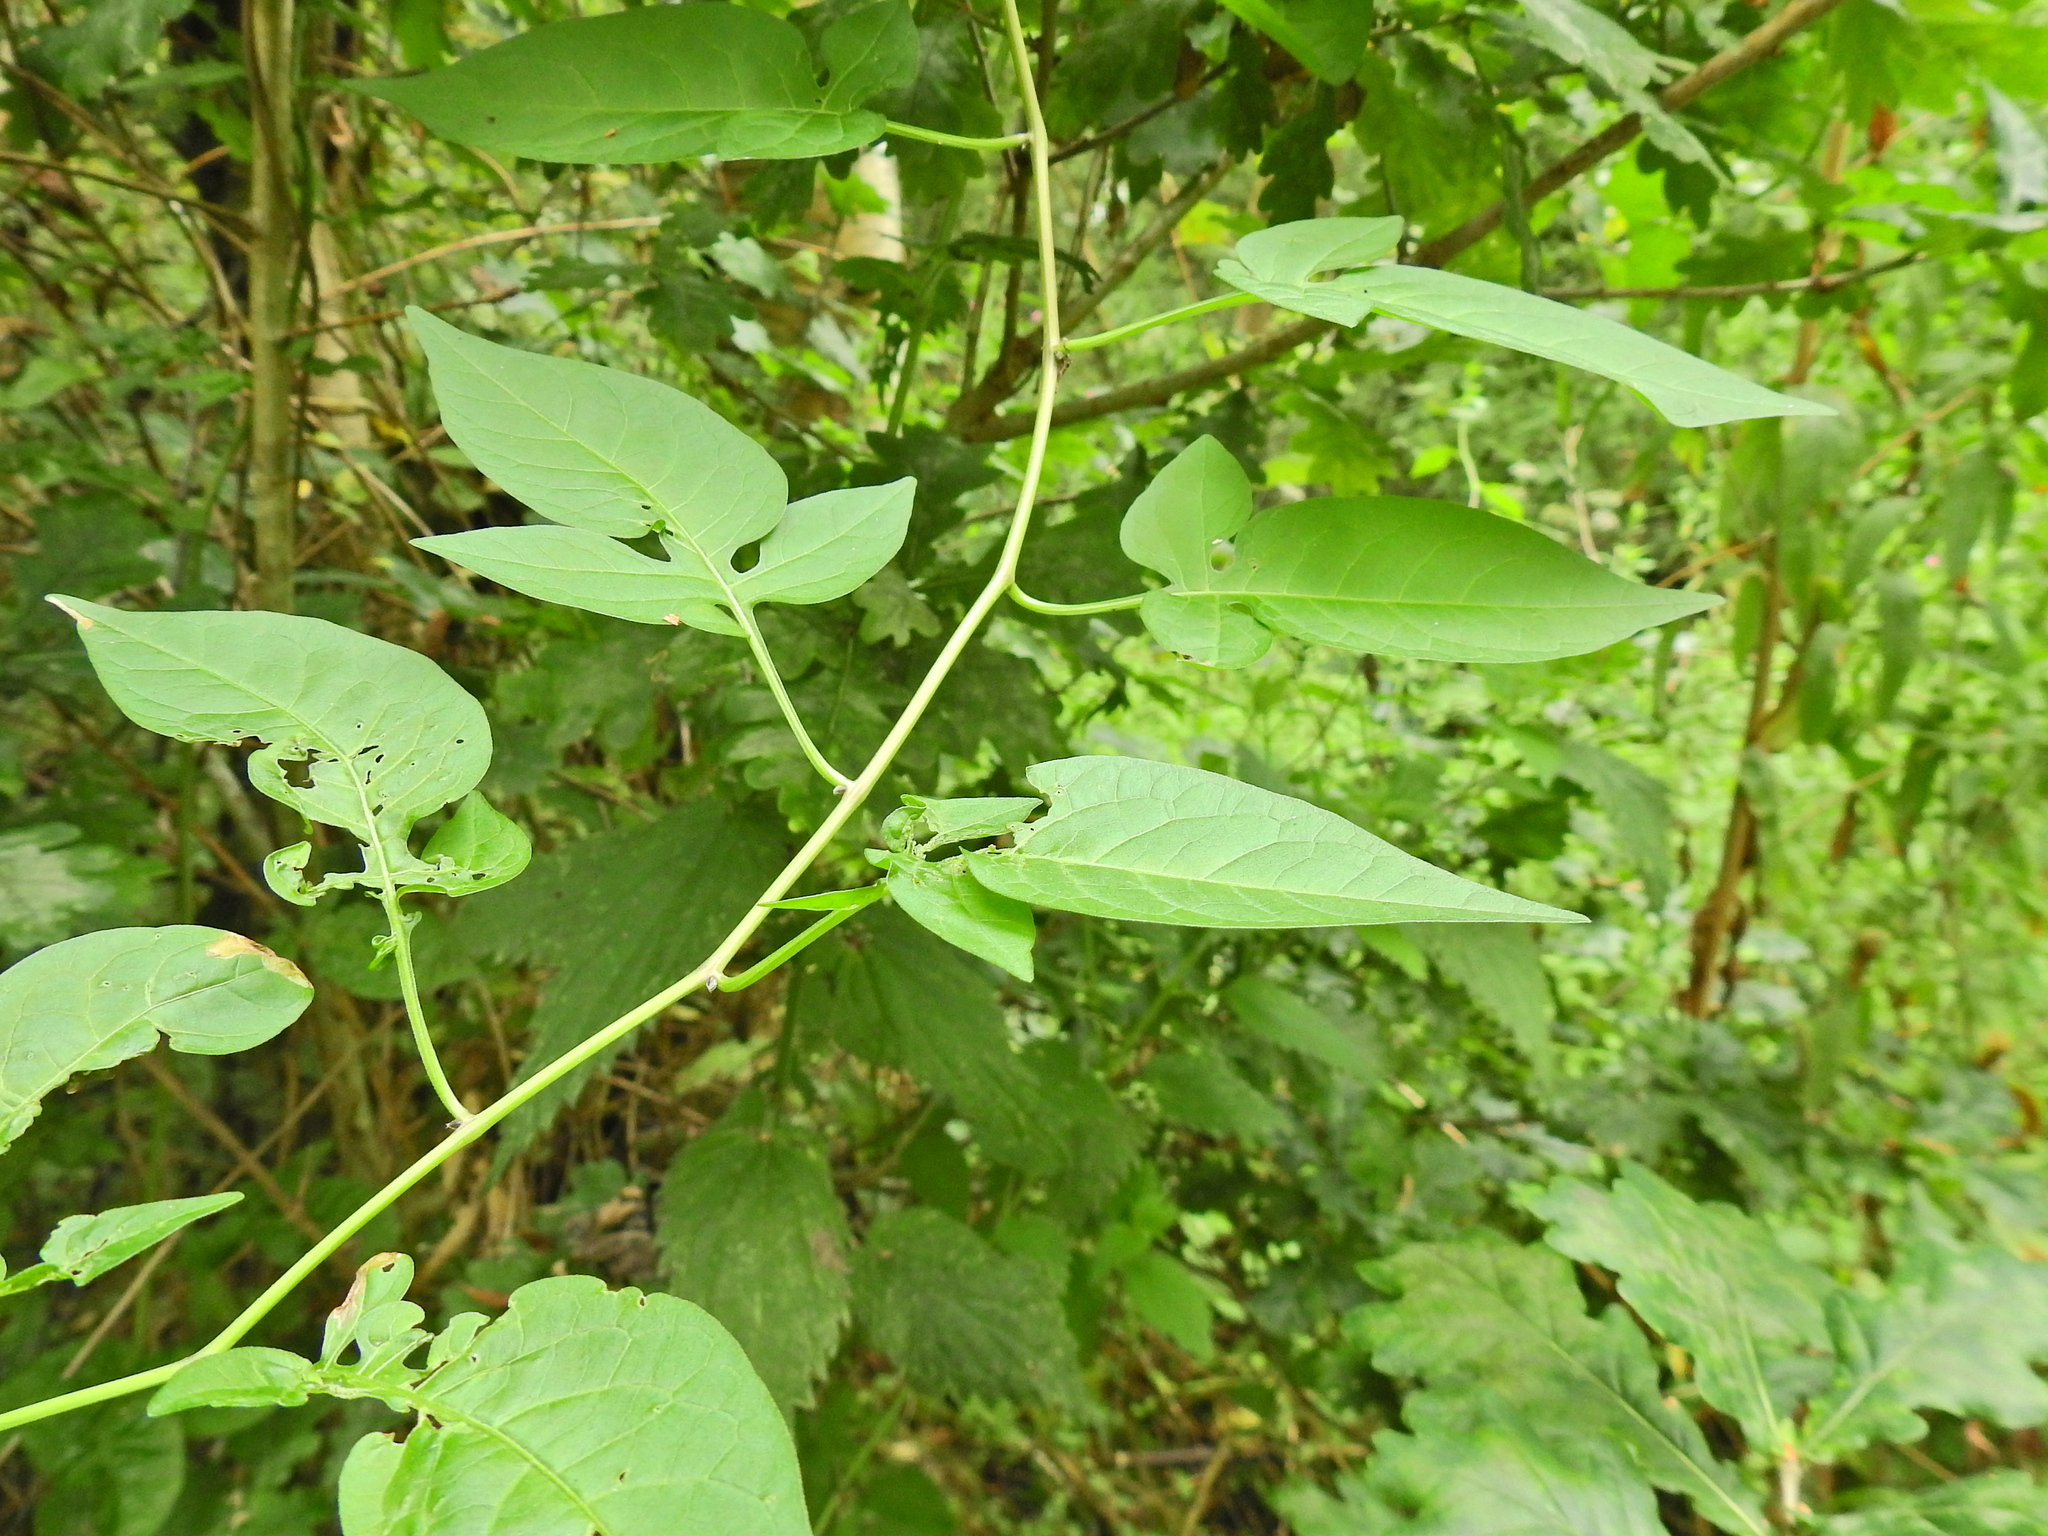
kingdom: Plantae
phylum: Tracheophyta
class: Magnoliopsida
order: Solanales
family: Solanaceae
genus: Solanum
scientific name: Solanum dulcamara
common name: Climbing nightshade
